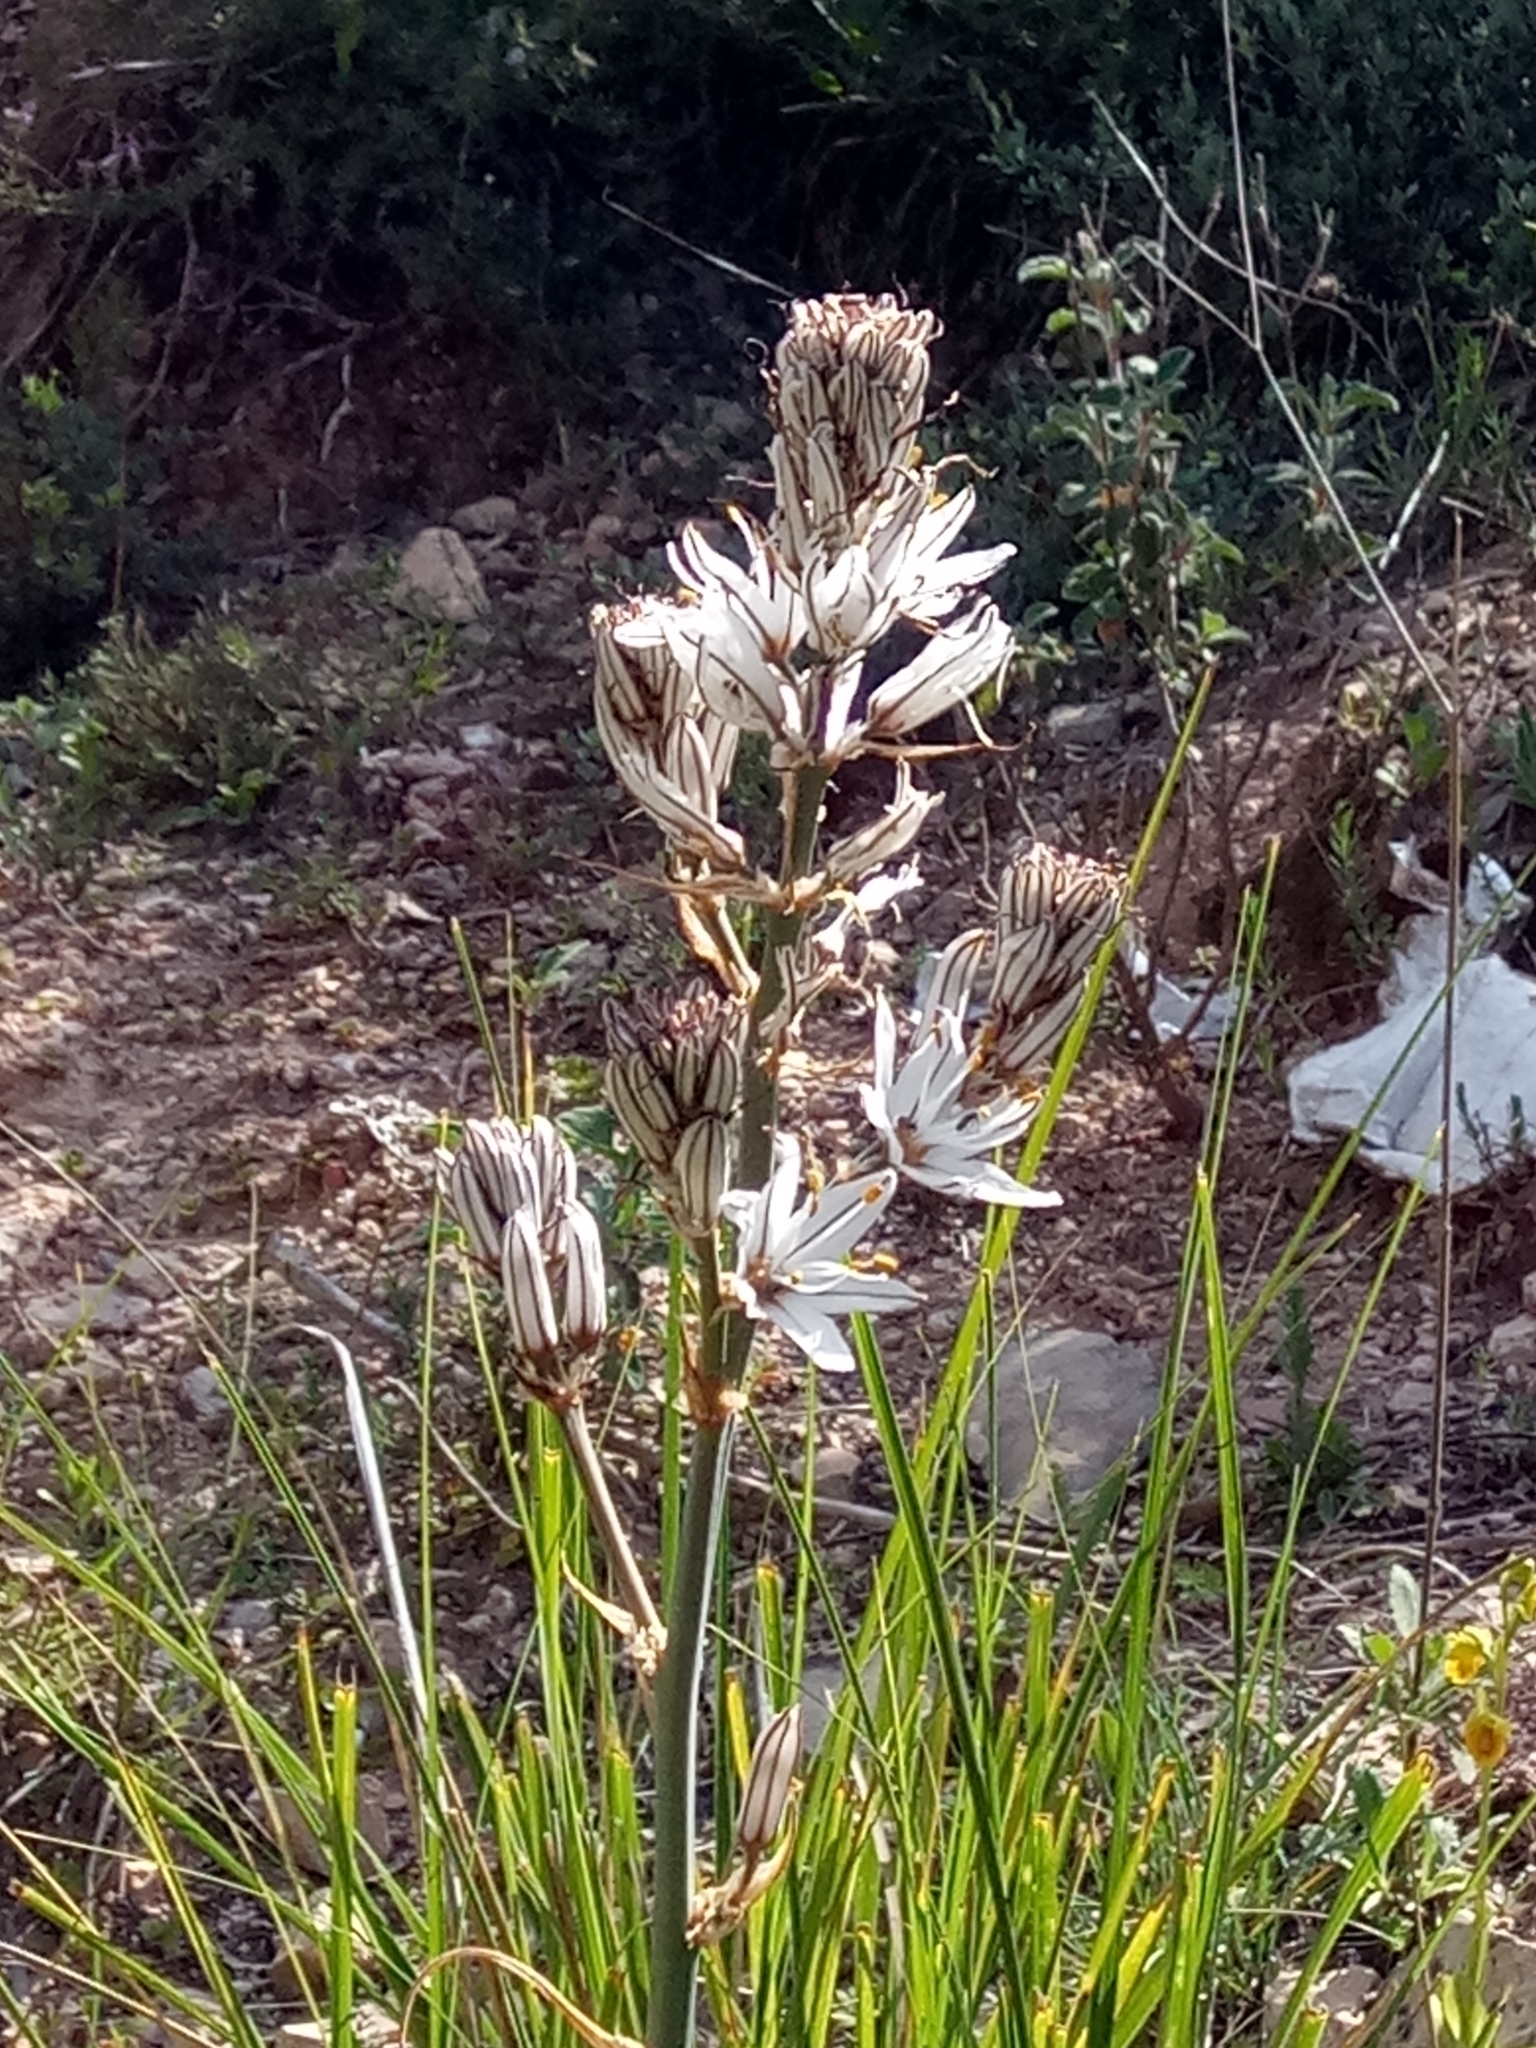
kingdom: Plantae
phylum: Tracheophyta
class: Liliopsida
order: Asparagales
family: Asphodelaceae
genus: Asphodelus
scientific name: Asphodelus ramosus
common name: Silverrod
